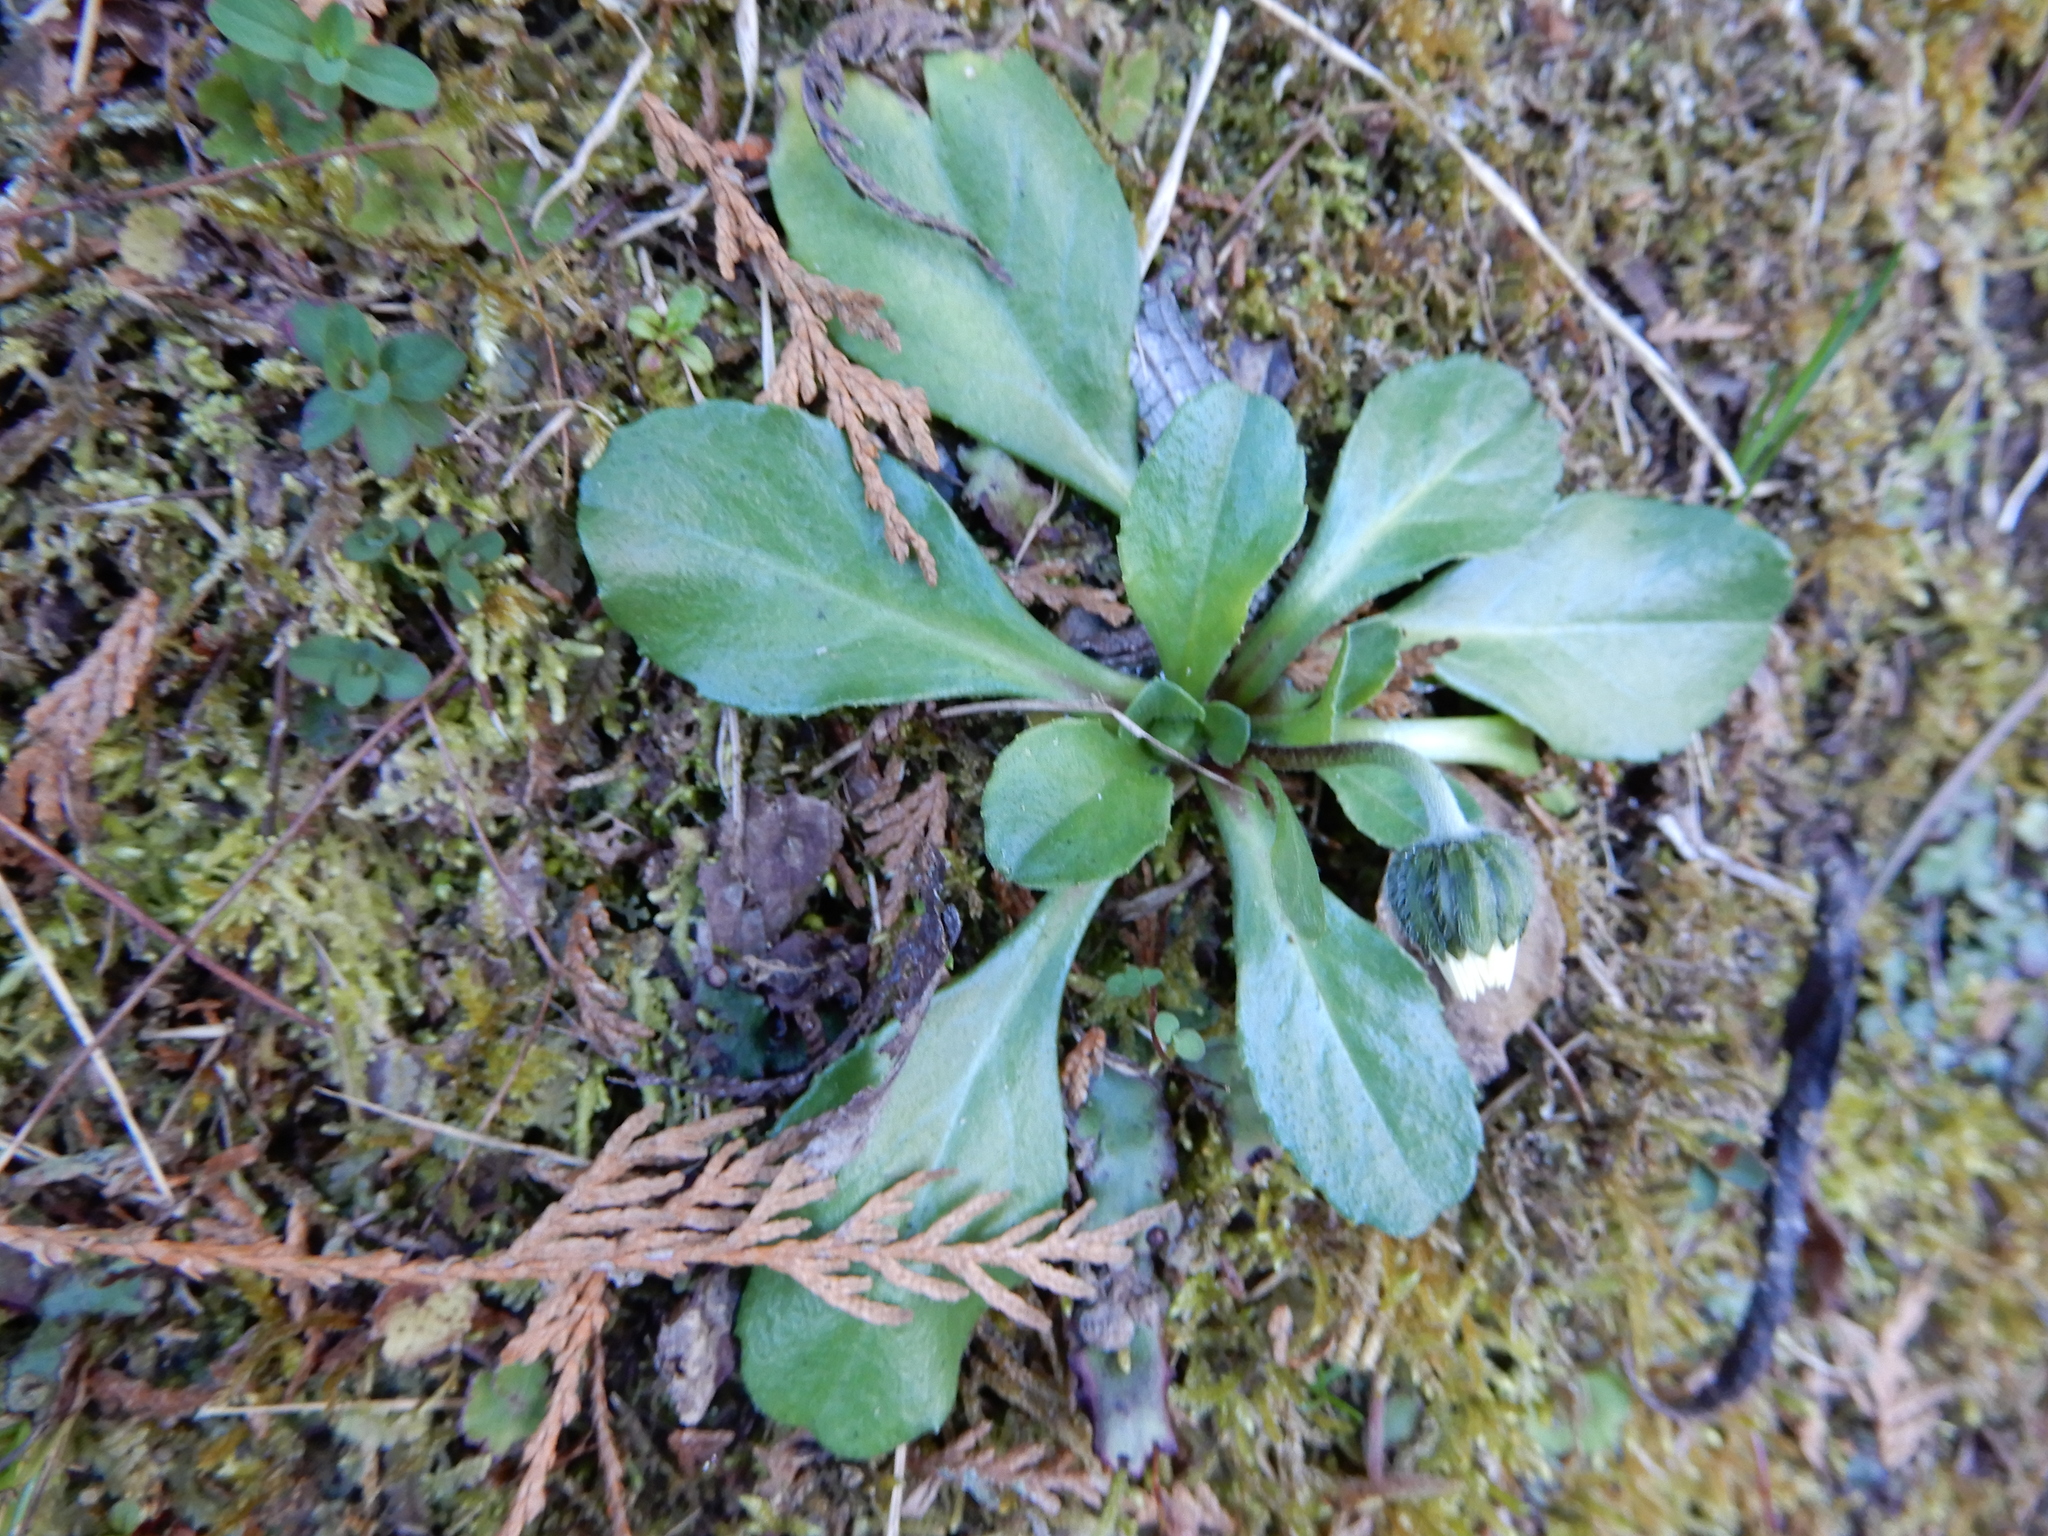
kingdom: Plantae
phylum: Tracheophyta
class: Magnoliopsida
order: Asterales
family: Asteraceae
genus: Bellis
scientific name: Bellis perennis
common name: Lawndaisy
